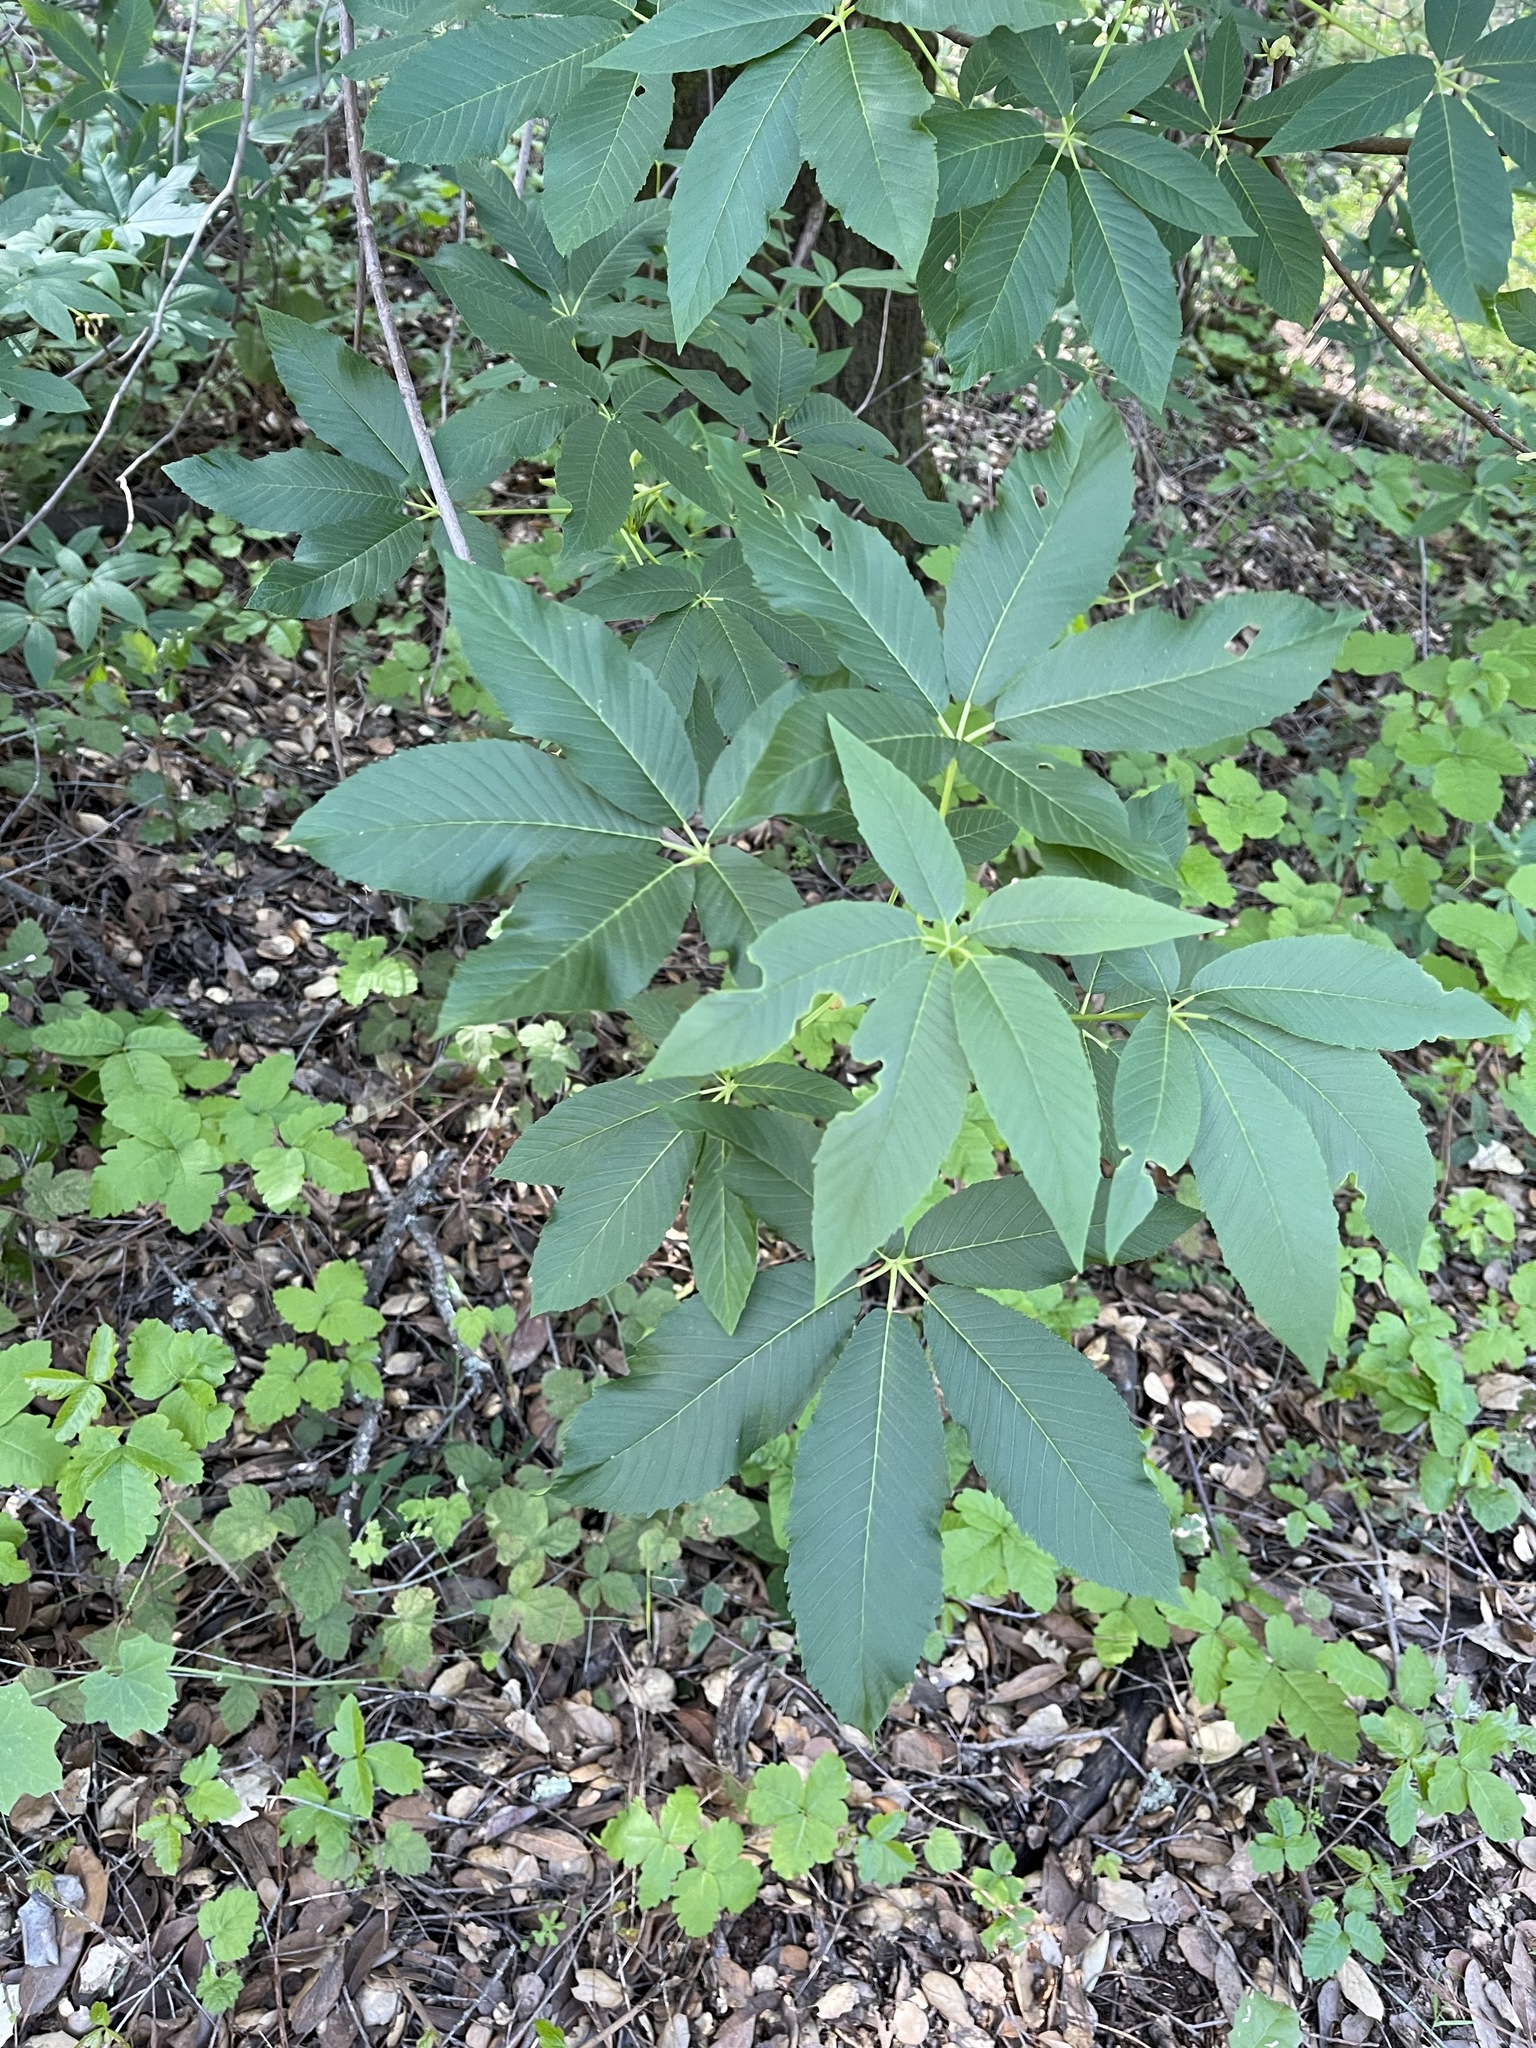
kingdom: Plantae
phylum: Tracheophyta
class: Magnoliopsida
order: Sapindales
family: Sapindaceae
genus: Aesculus
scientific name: Aesculus californica
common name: California buckeye
